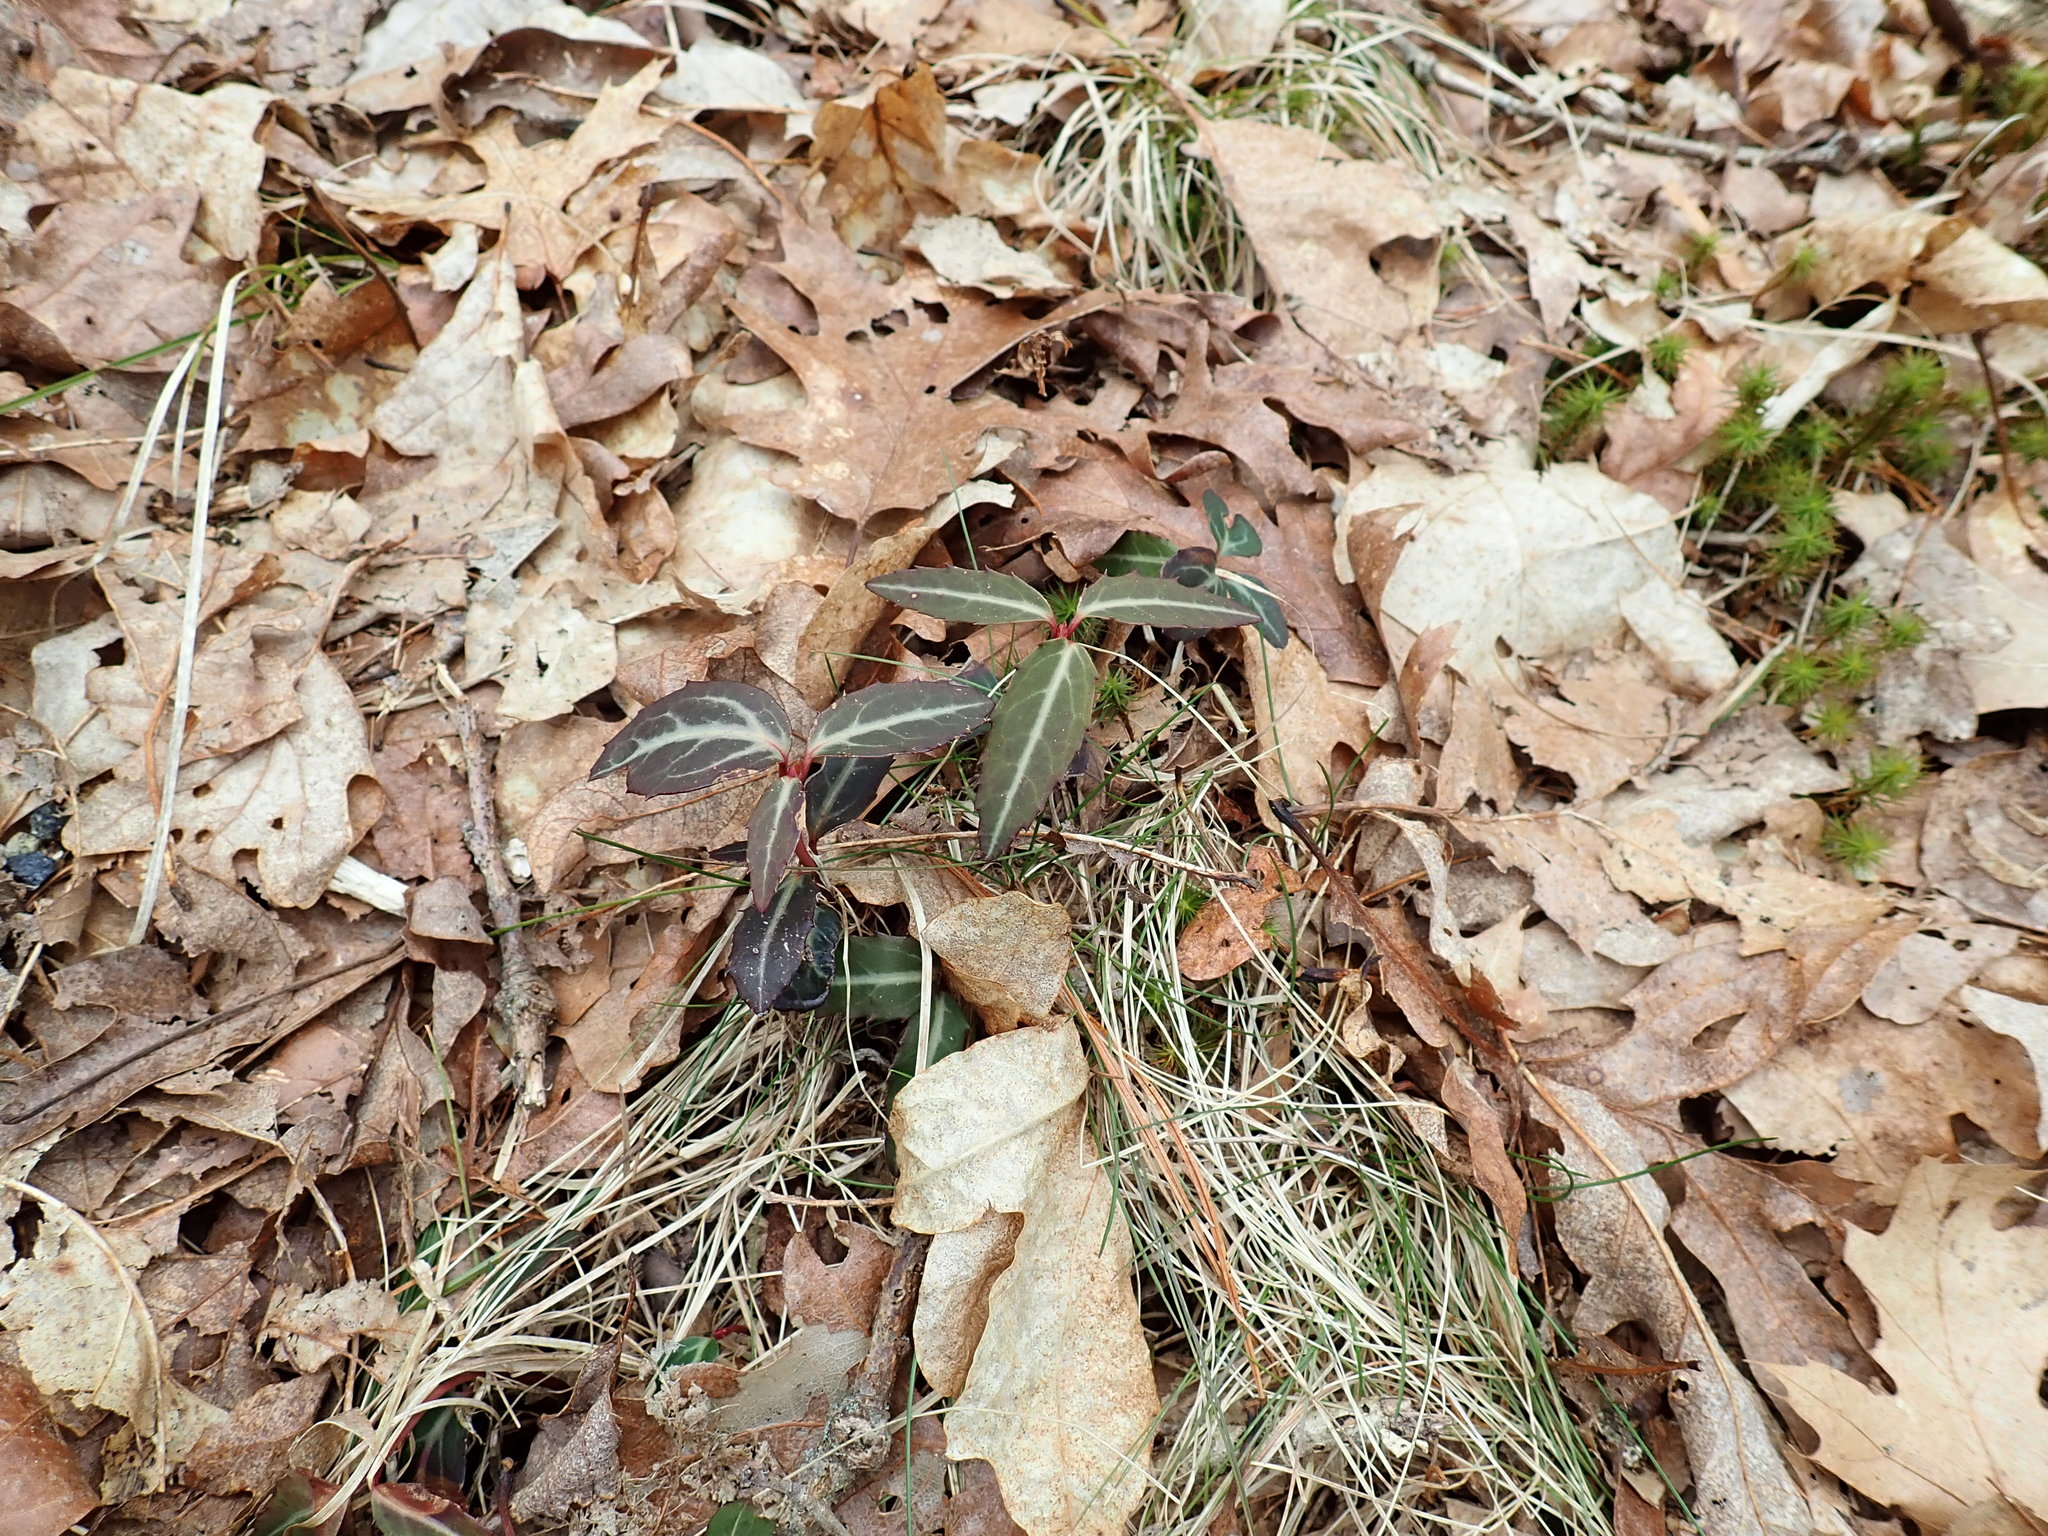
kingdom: Plantae
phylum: Tracheophyta
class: Magnoliopsida
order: Ericales
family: Ericaceae
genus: Chimaphila
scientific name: Chimaphila maculata
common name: Spotted pipsissewa
